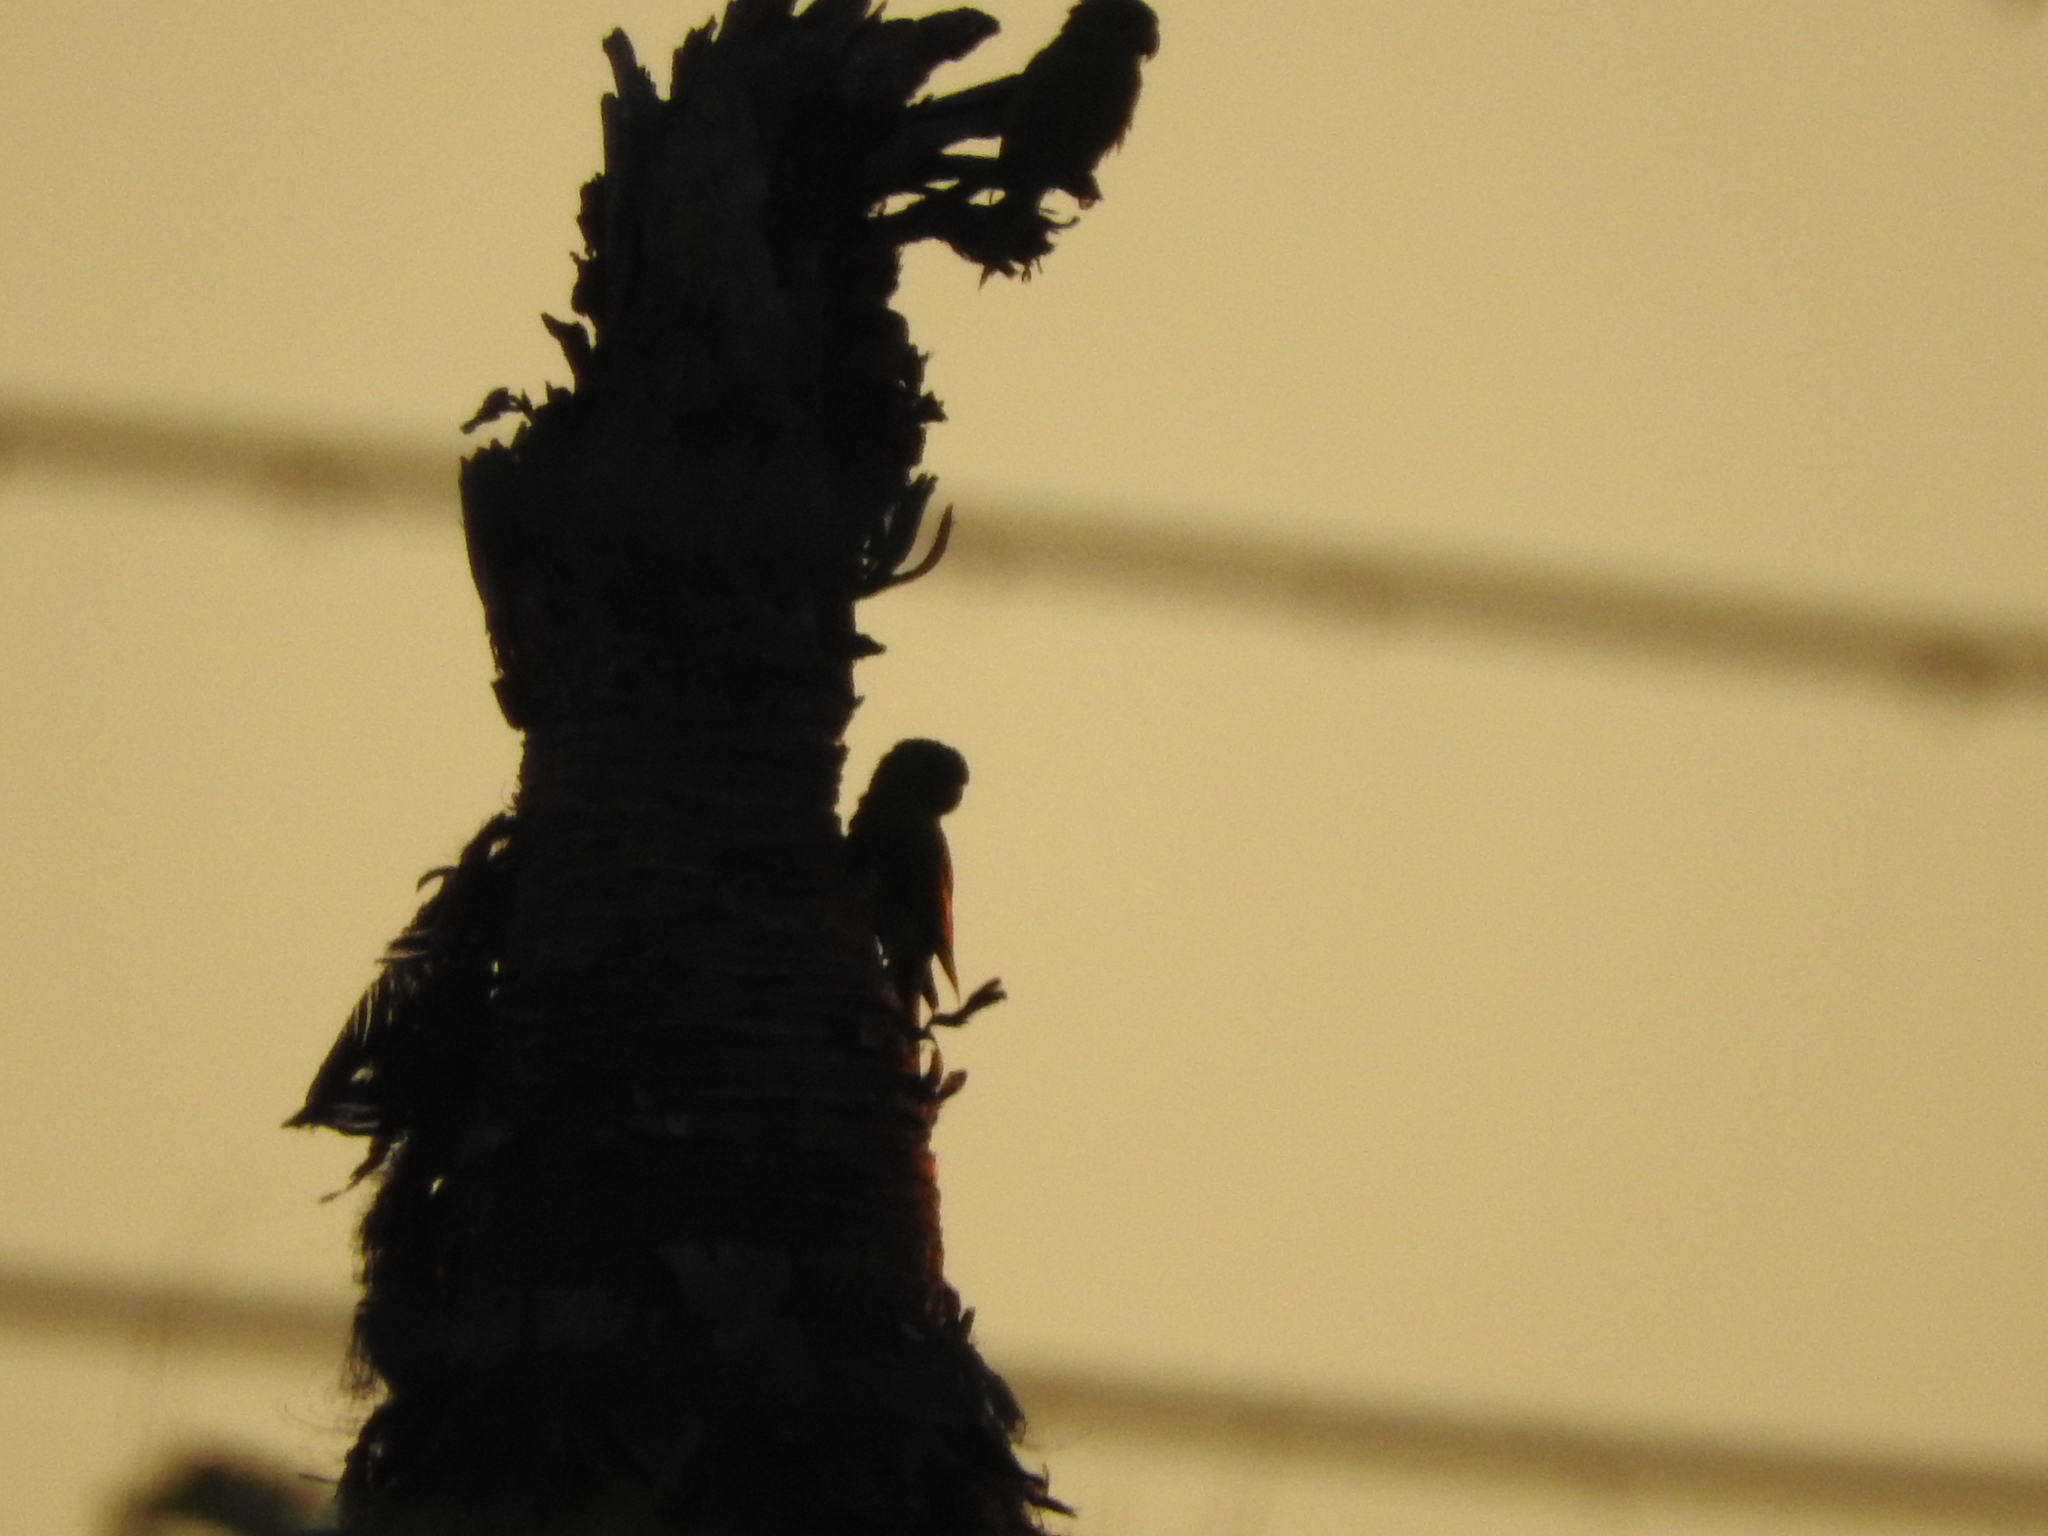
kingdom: Animalia
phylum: Chordata
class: Aves
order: Psittaciformes
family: Psittacidae
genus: Aratinga
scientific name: Aratinga holochlora
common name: Green parakeet
